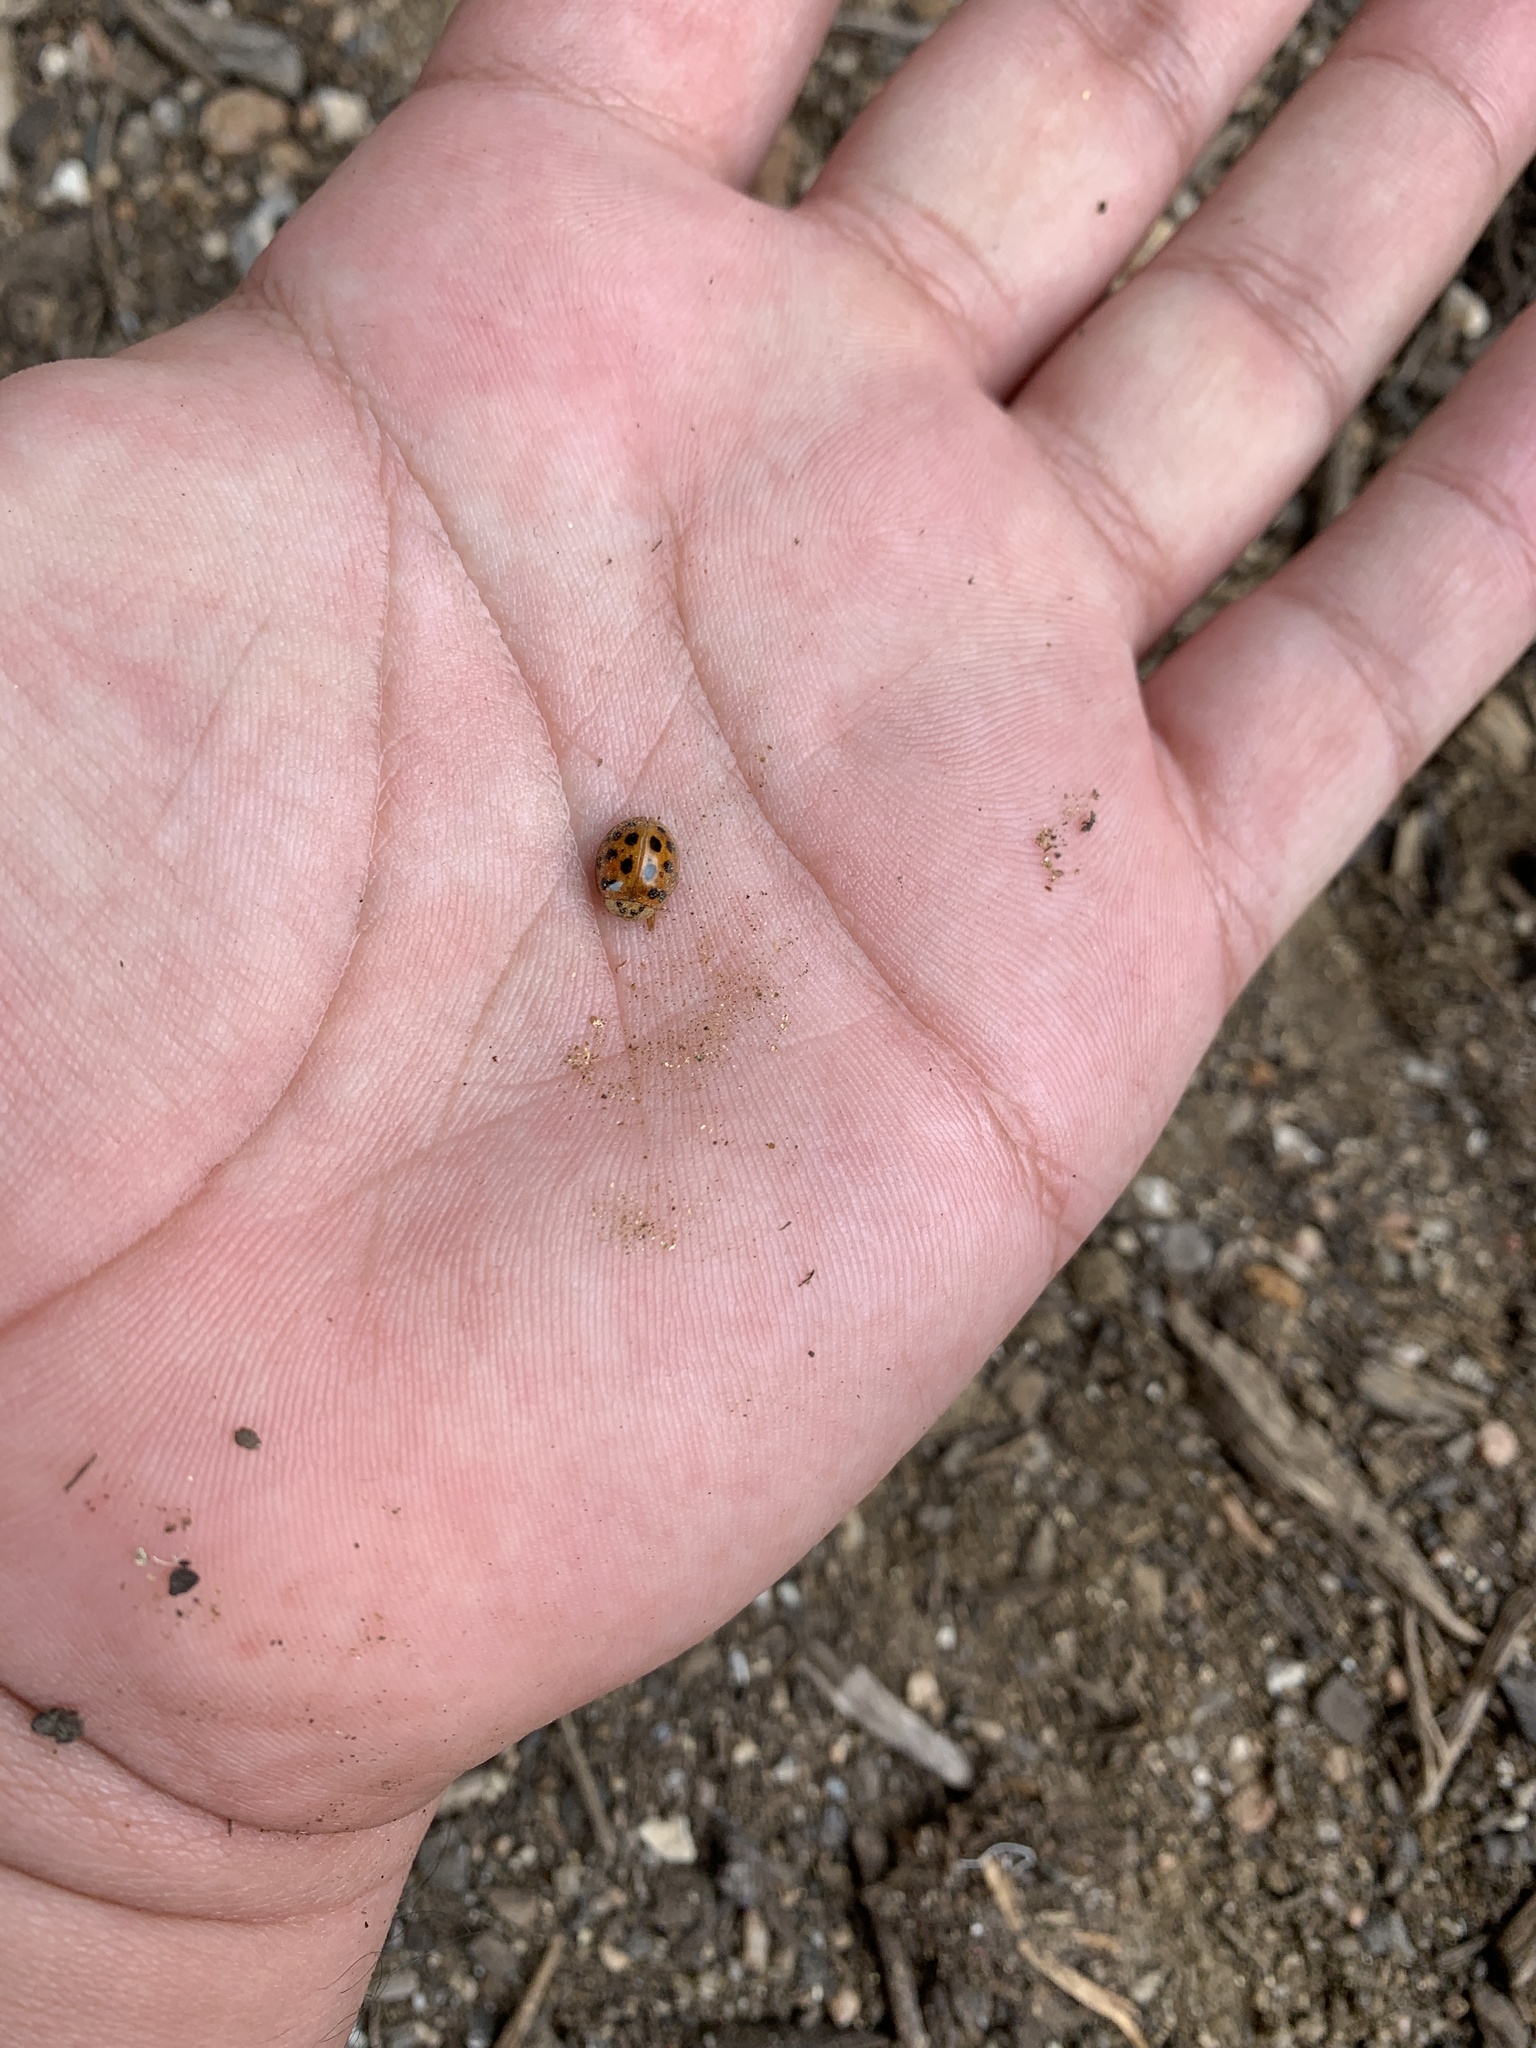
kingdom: Animalia
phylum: Arthropoda
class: Insecta
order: Coleoptera
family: Coccinellidae
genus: Harmonia
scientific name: Harmonia axyridis
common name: Harlequin ladybird
